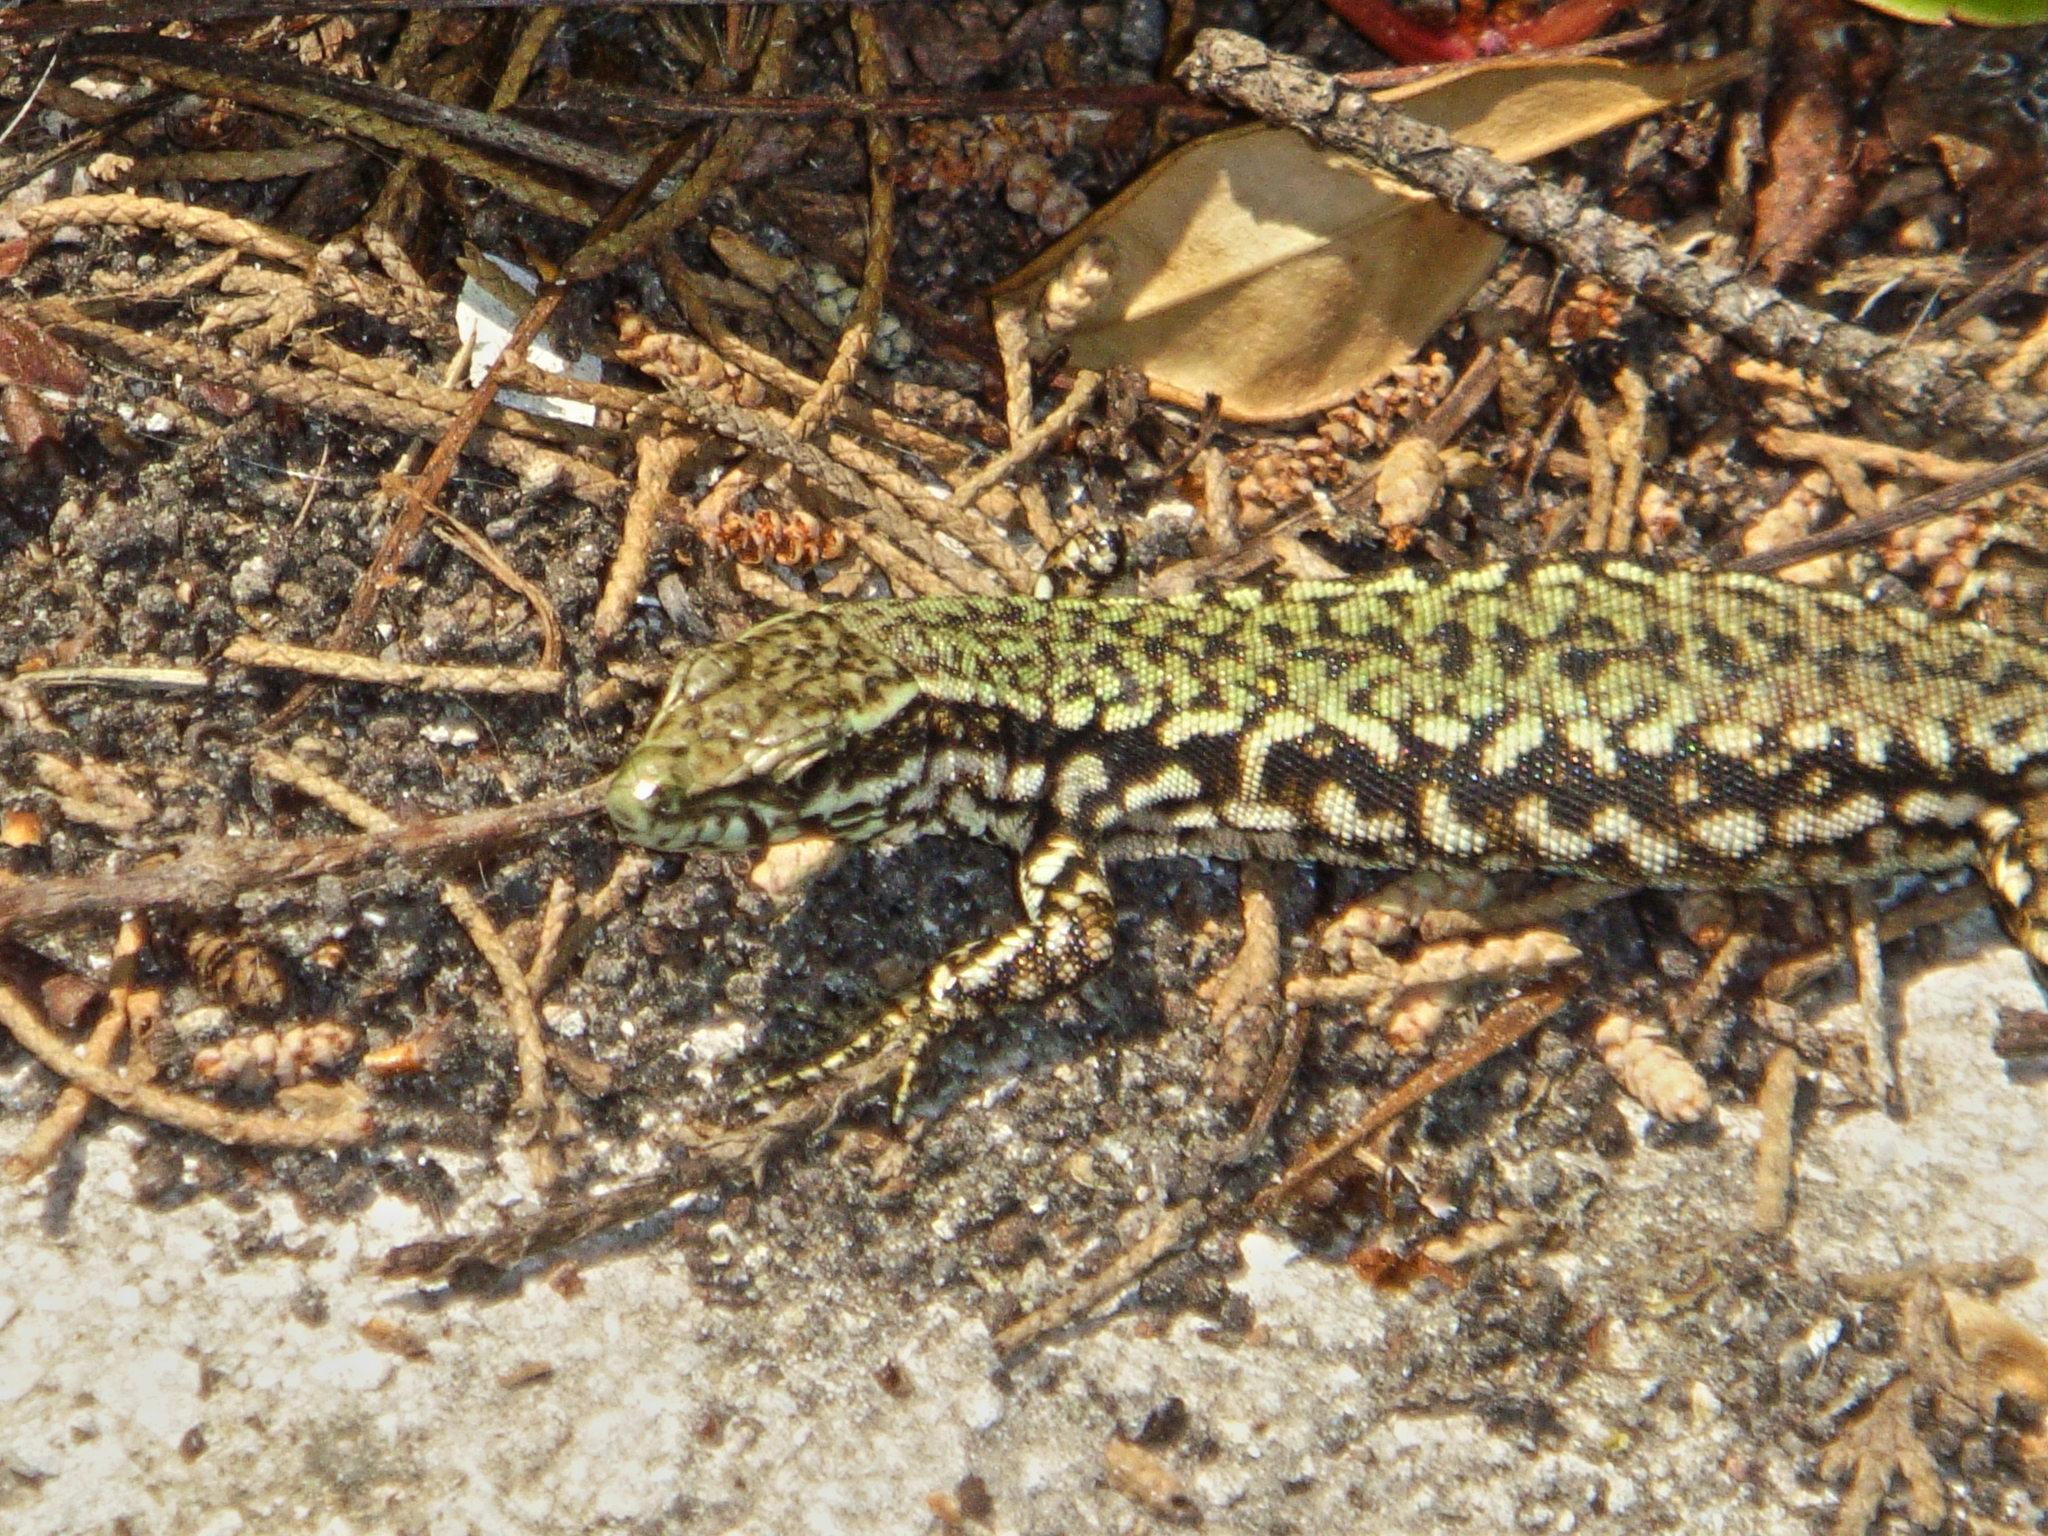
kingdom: Animalia
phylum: Chordata
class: Squamata
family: Lacertidae
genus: Podarcis
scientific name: Podarcis muralis
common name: Common wall lizard
